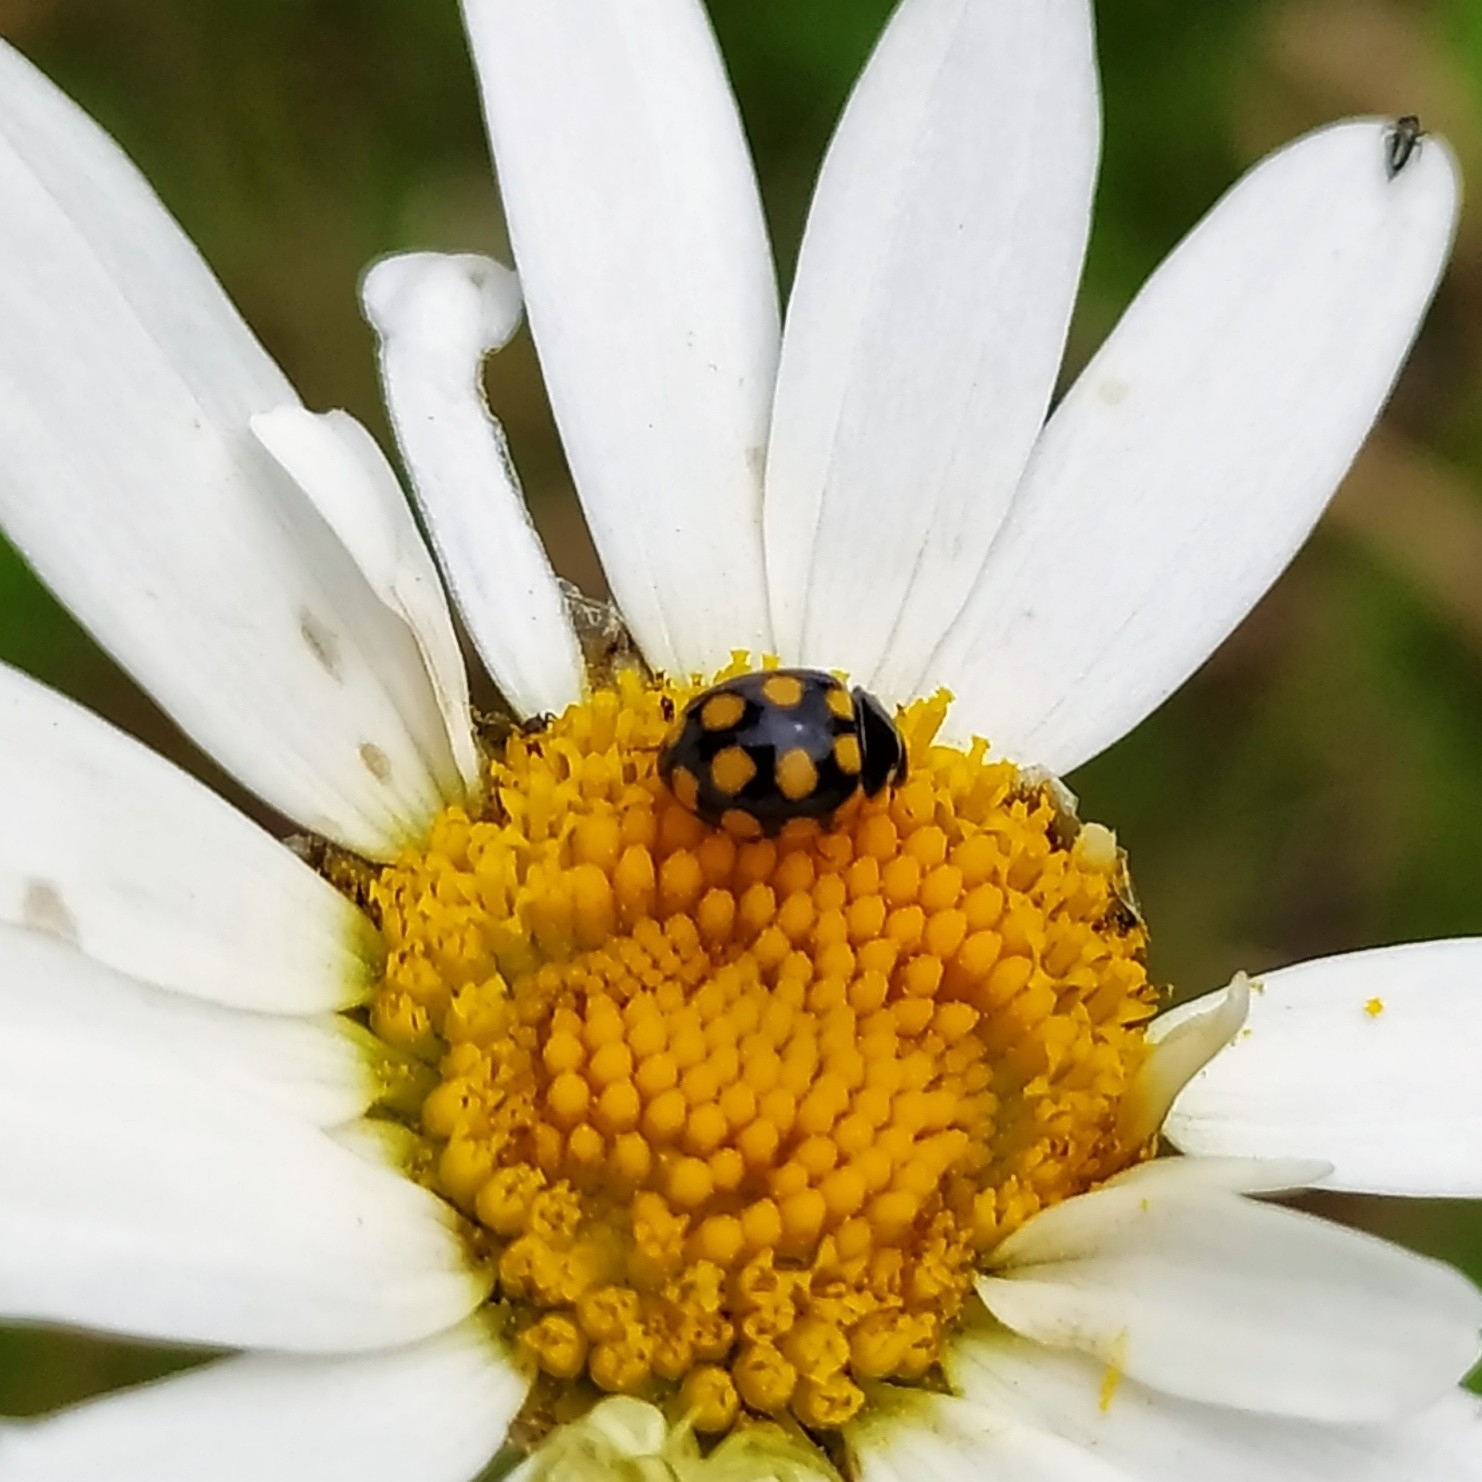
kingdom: Animalia
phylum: Arthropoda
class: Insecta
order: Coleoptera
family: Coccinellidae
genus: Coccinula
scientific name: Coccinula quatuordecimpustulata
